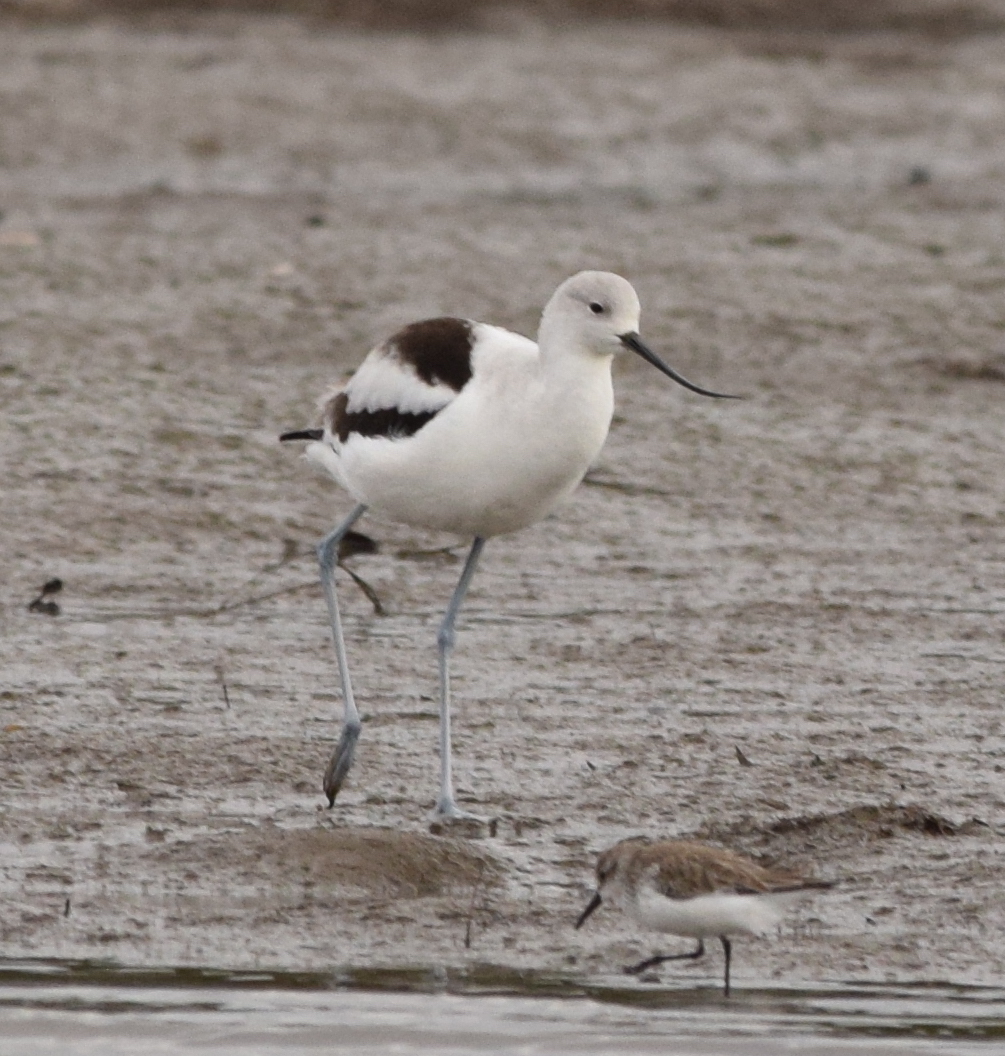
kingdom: Animalia
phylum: Chordata
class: Aves
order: Charadriiformes
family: Recurvirostridae
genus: Recurvirostra
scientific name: Recurvirostra americana
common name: American avocet
